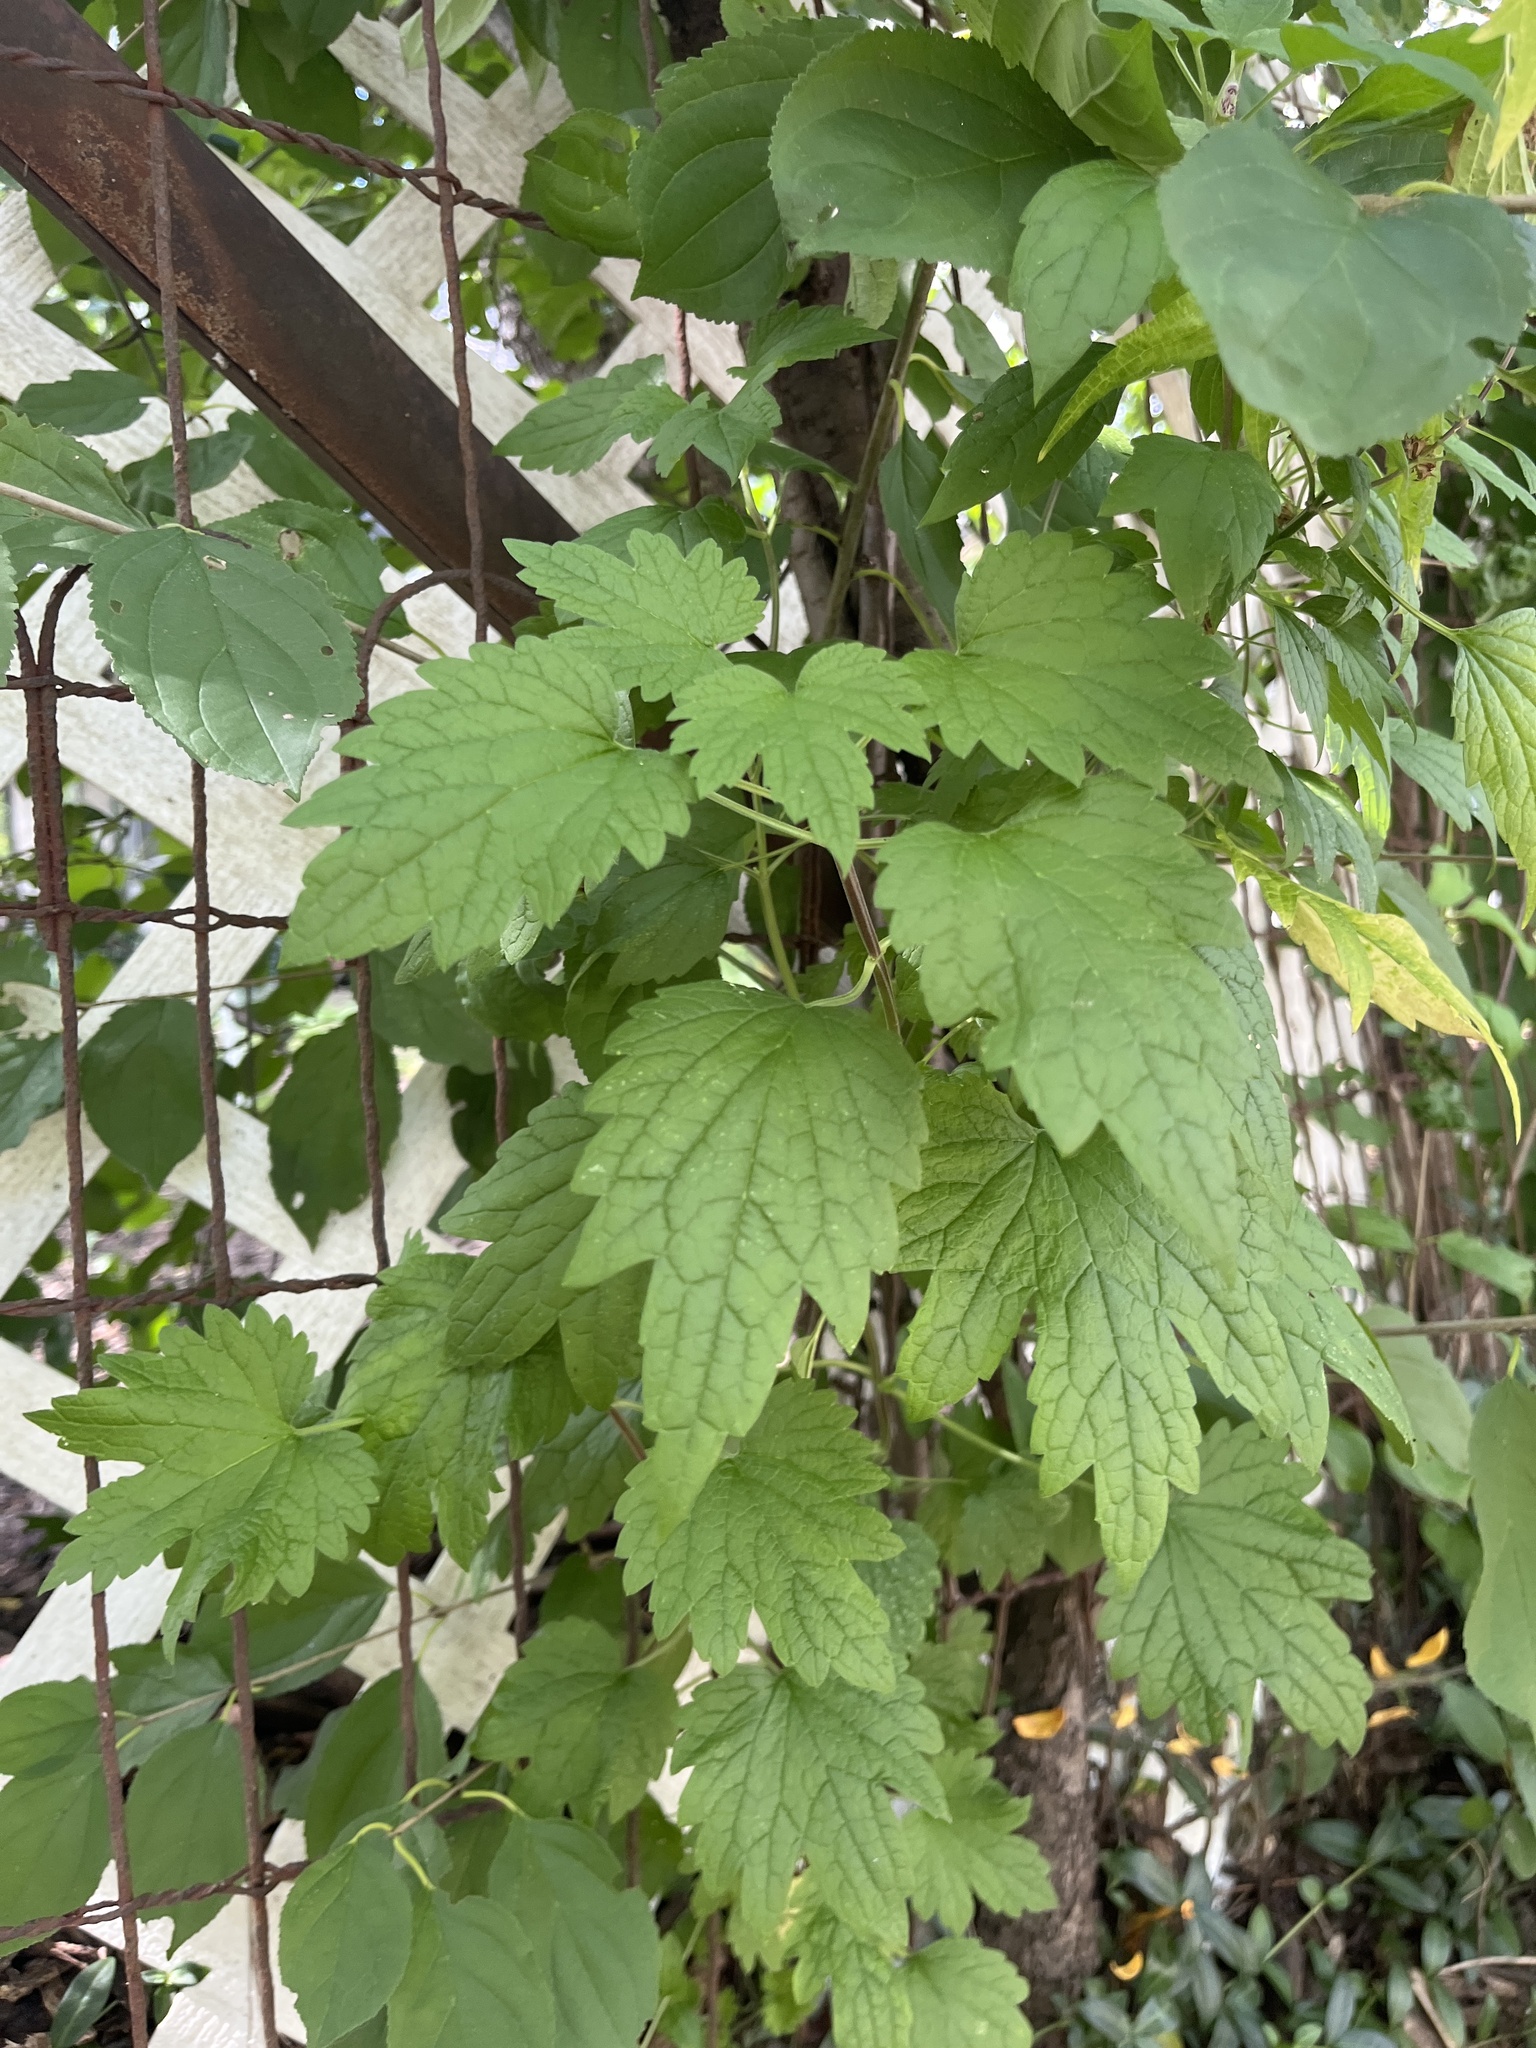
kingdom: Plantae
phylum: Tracheophyta
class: Magnoliopsida
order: Lamiales
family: Lamiaceae
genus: Leonurus
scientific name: Leonurus cardiaca
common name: Motherwort
